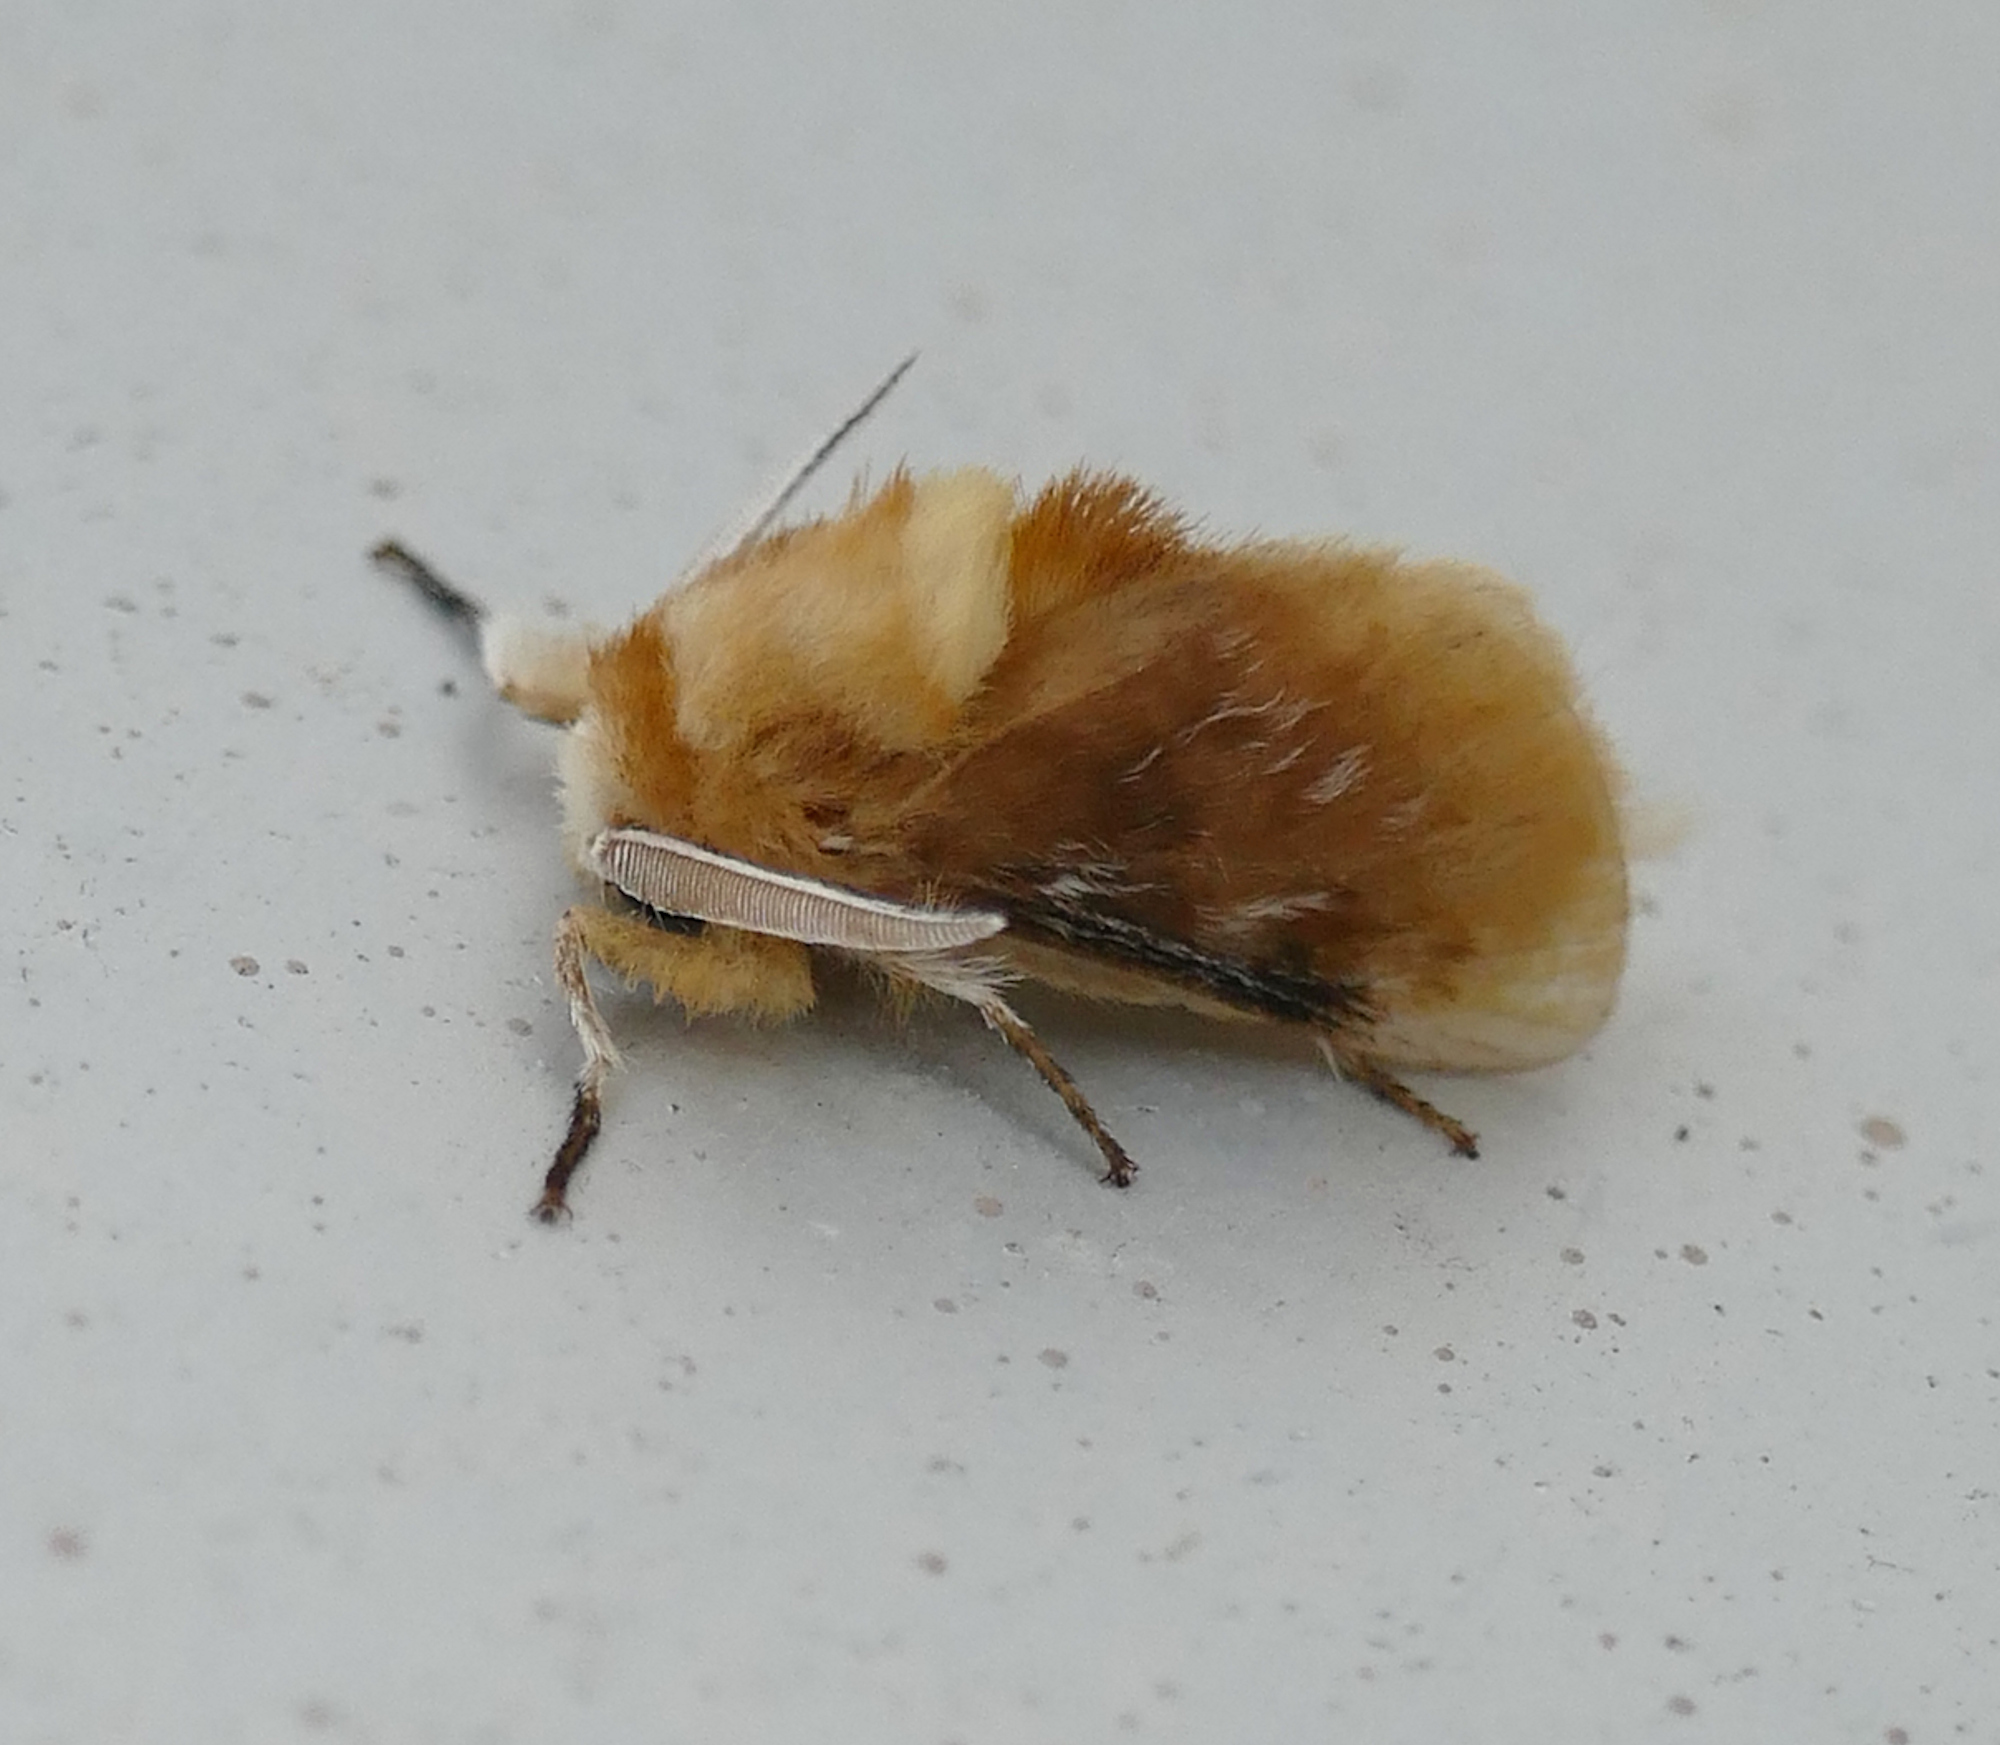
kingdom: Animalia
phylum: Arthropoda
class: Insecta
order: Lepidoptera
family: Megalopygidae
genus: Megalopyge
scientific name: Megalopyge opercularis
